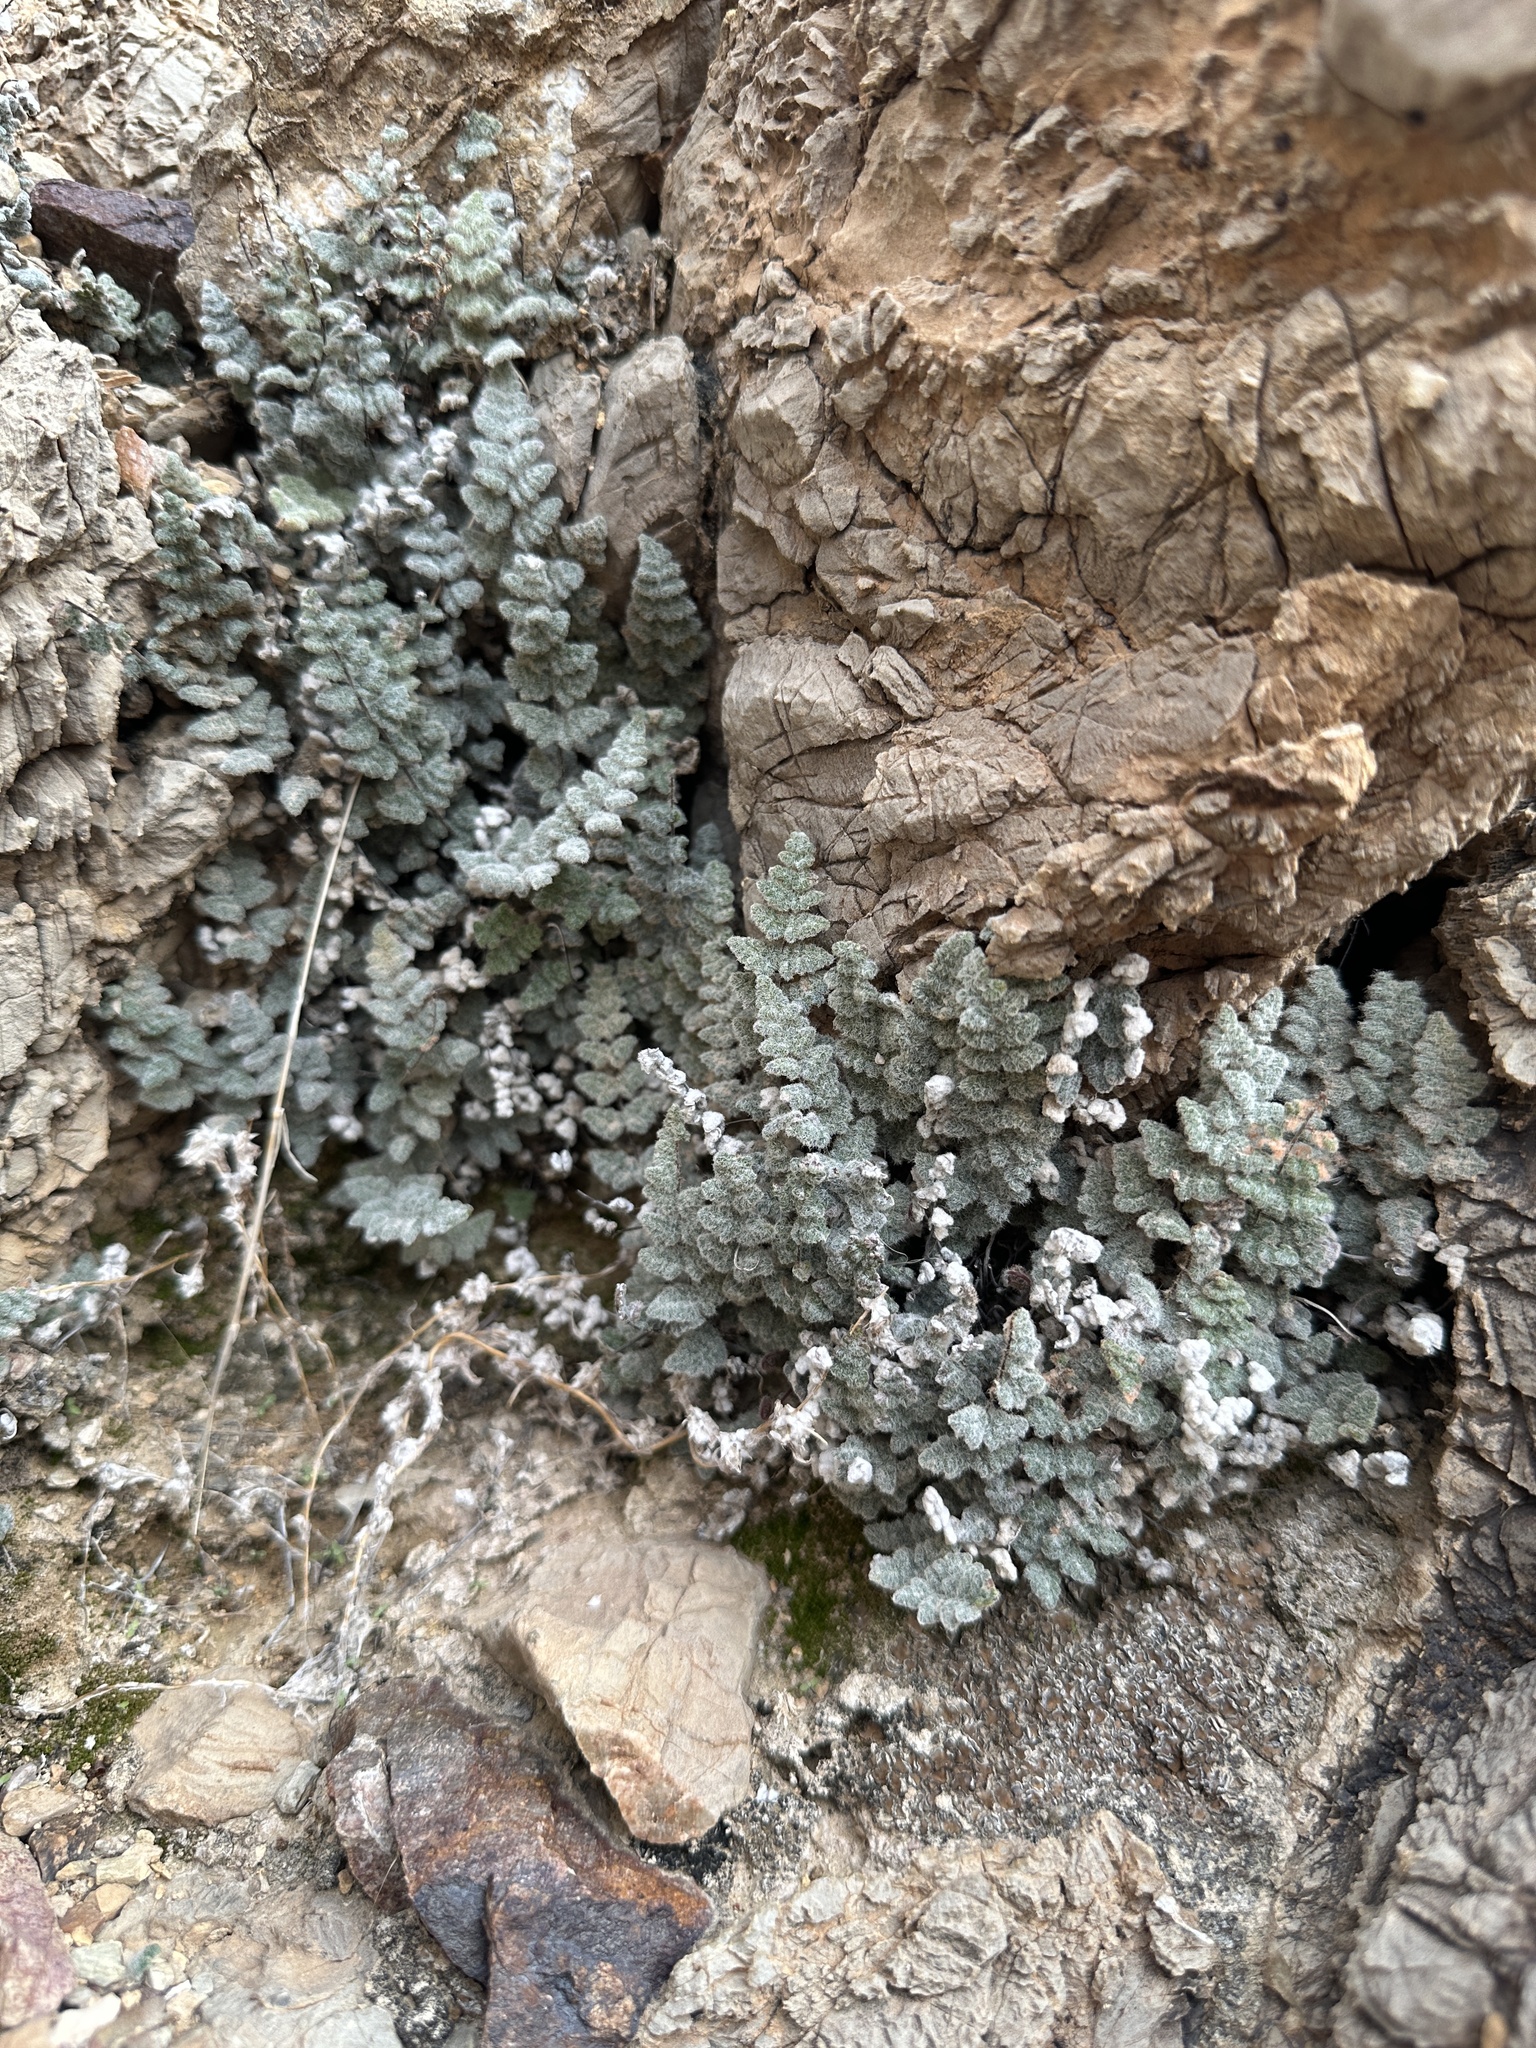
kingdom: Plantae
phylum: Tracheophyta
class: Polypodiopsida
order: Polypodiales
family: Pteridaceae
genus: Myriopteris
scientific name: Myriopteris parryi
